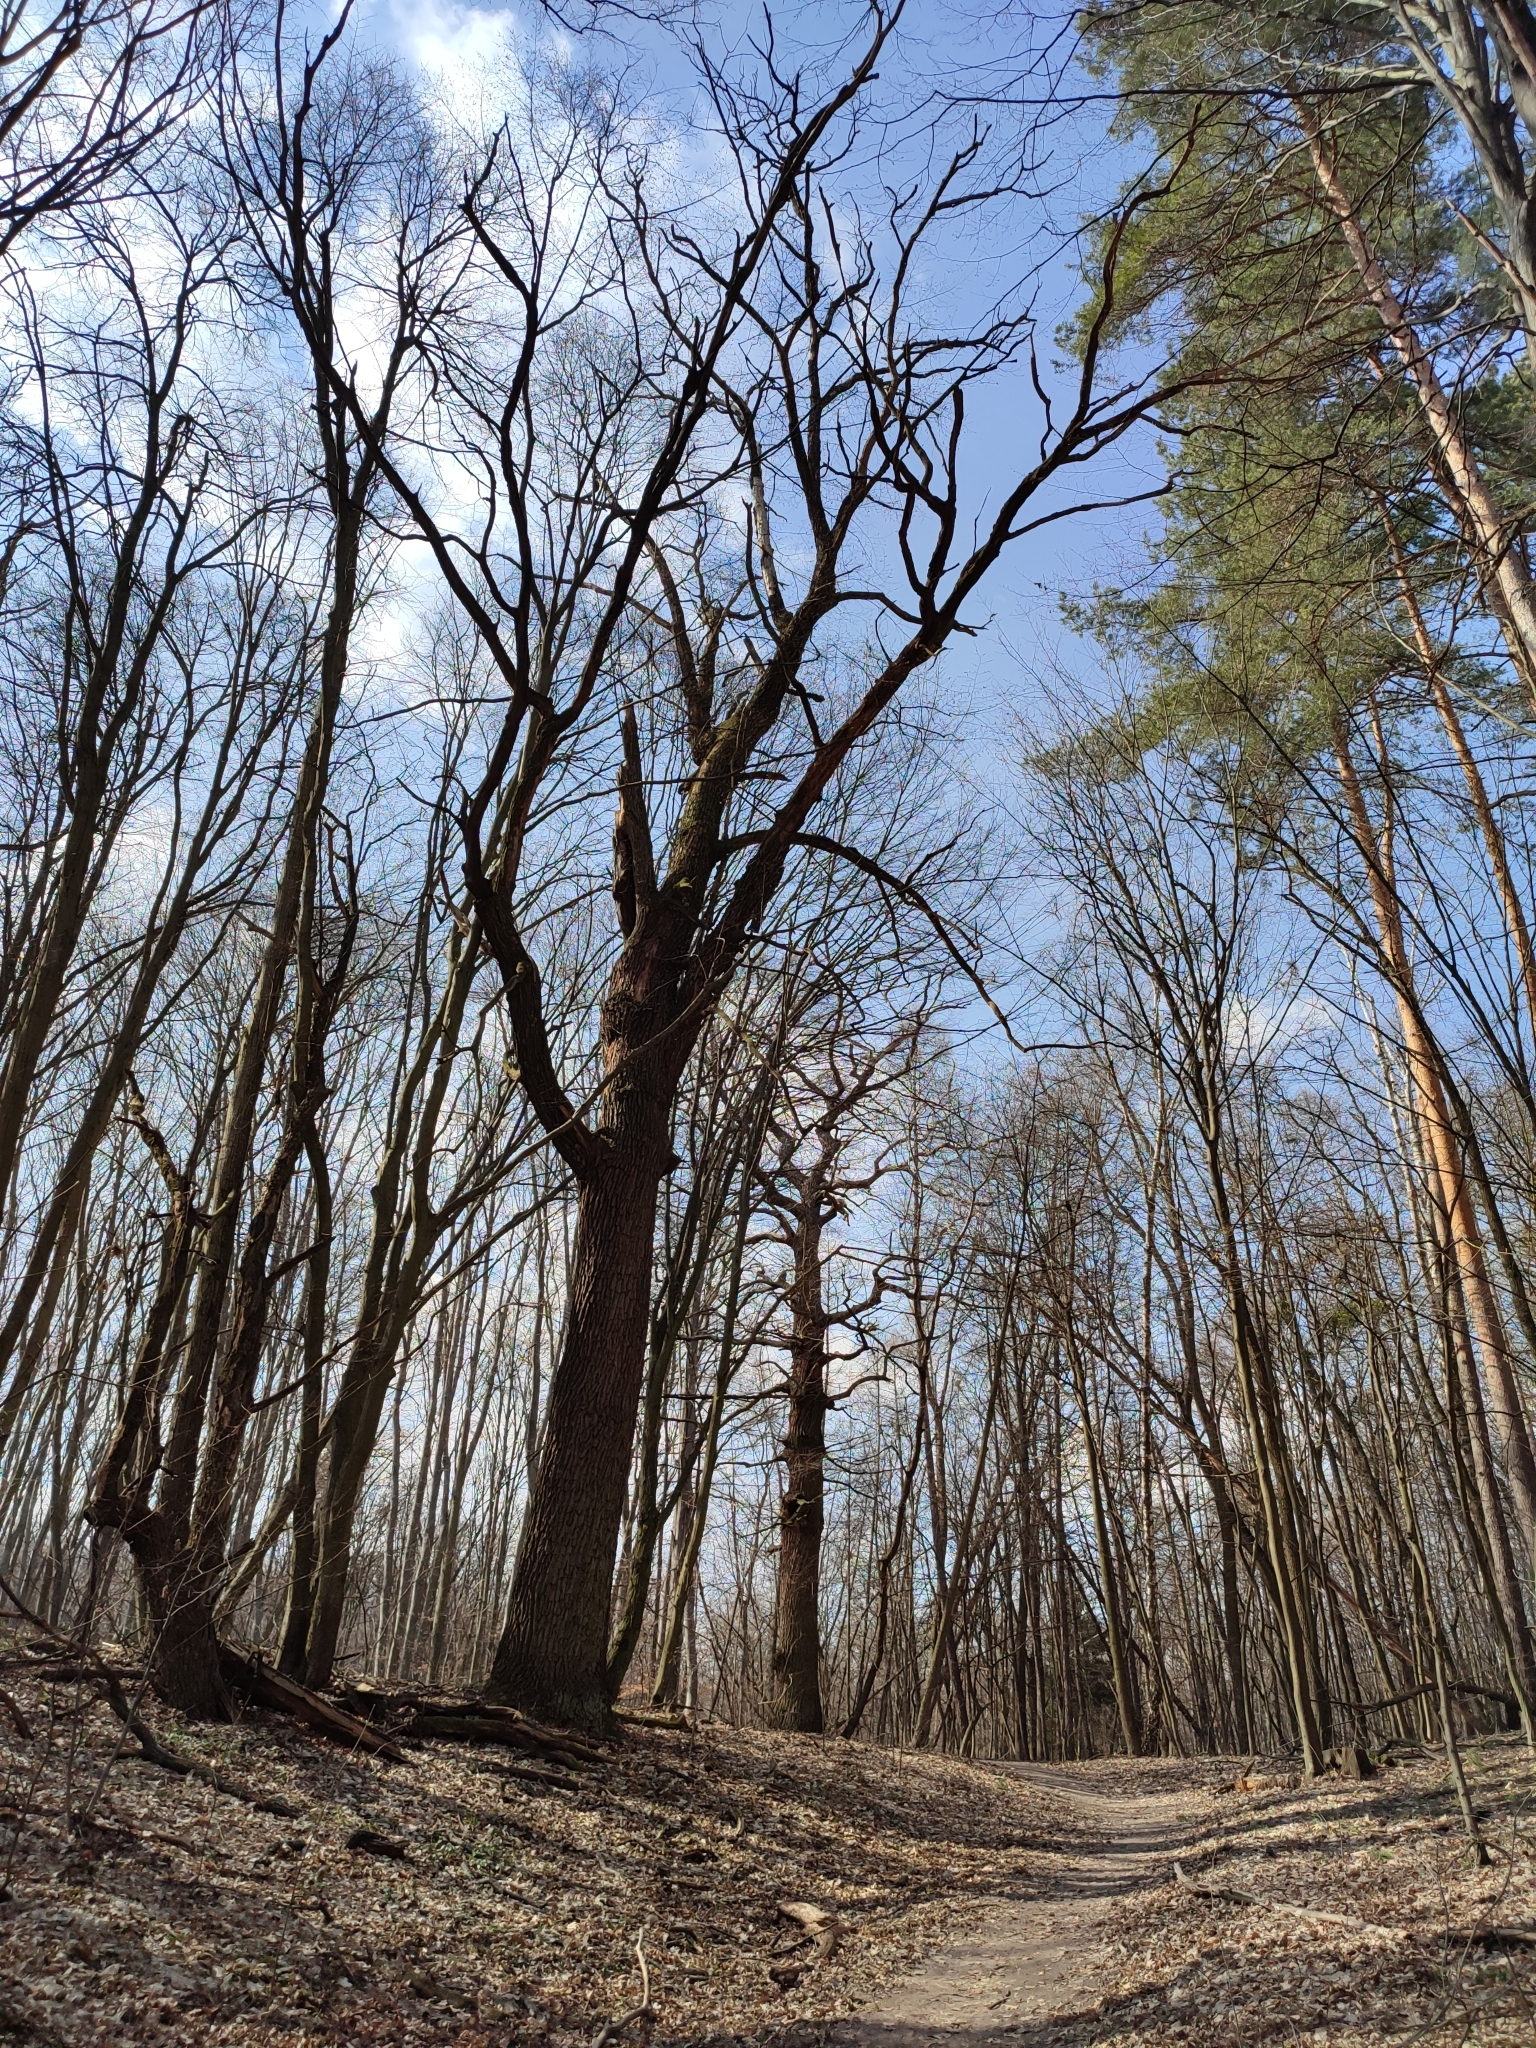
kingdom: Plantae
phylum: Tracheophyta
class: Magnoliopsida
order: Fagales
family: Fagaceae
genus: Quercus
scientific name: Quercus robur
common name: Pedunculate oak
